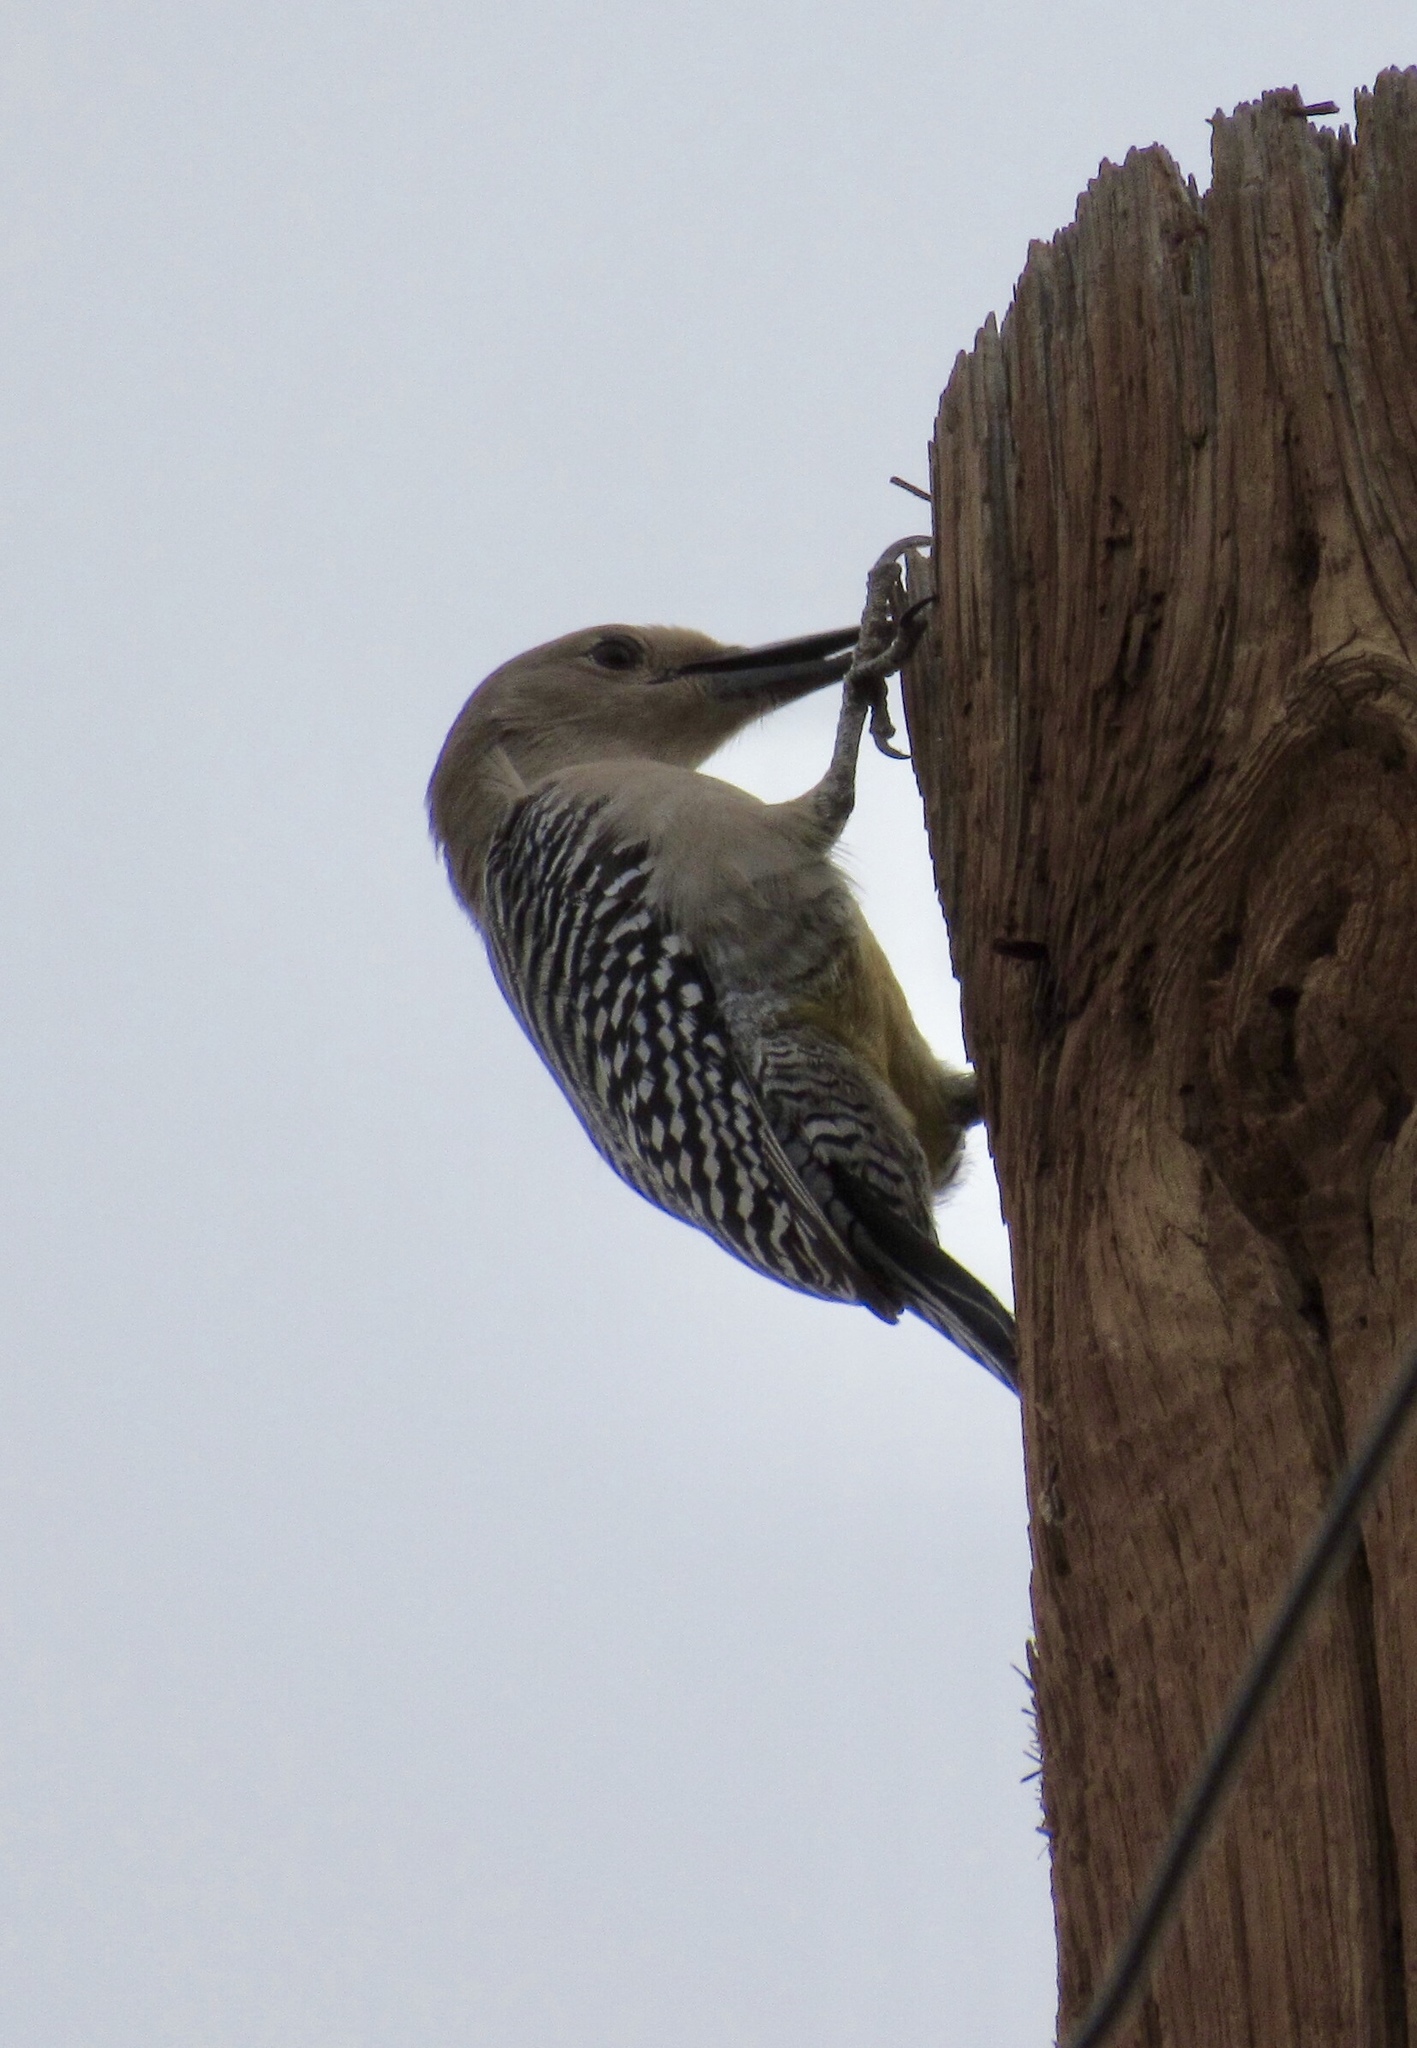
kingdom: Animalia
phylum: Chordata
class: Aves
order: Piciformes
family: Picidae
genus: Melanerpes
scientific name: Melanerpes uropygialis
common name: Gila woodpecker
